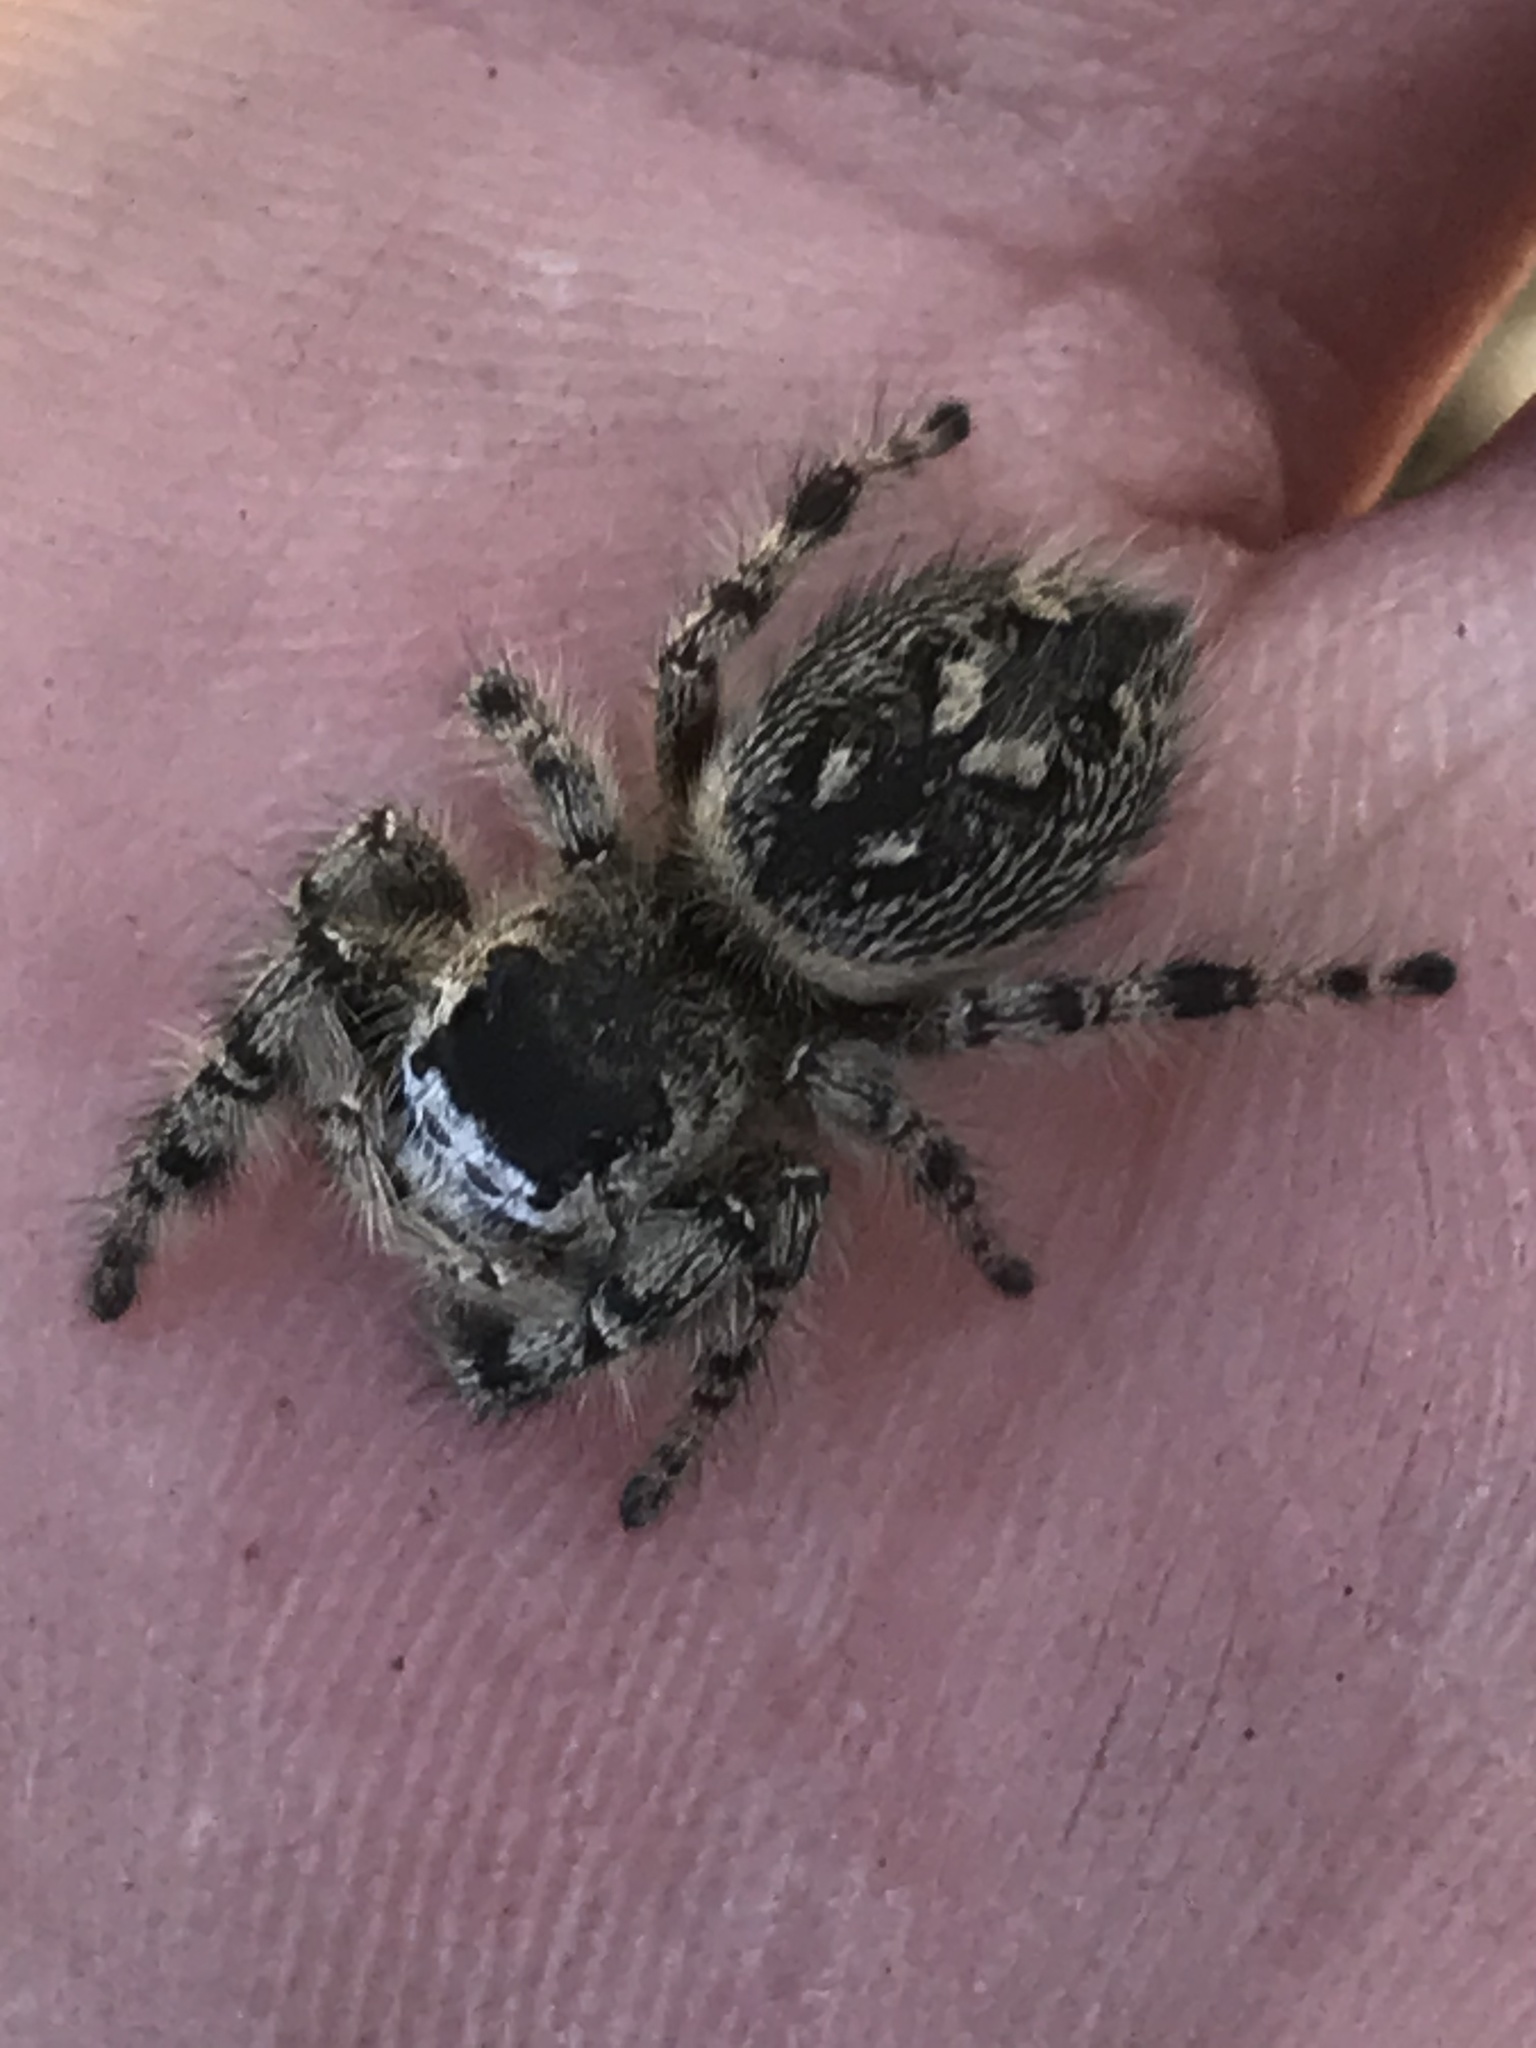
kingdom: Animalia
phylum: Arthropoda
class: Arachnida
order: Araneae
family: Salticidae
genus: Phidippus
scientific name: Phidippus otiosus
